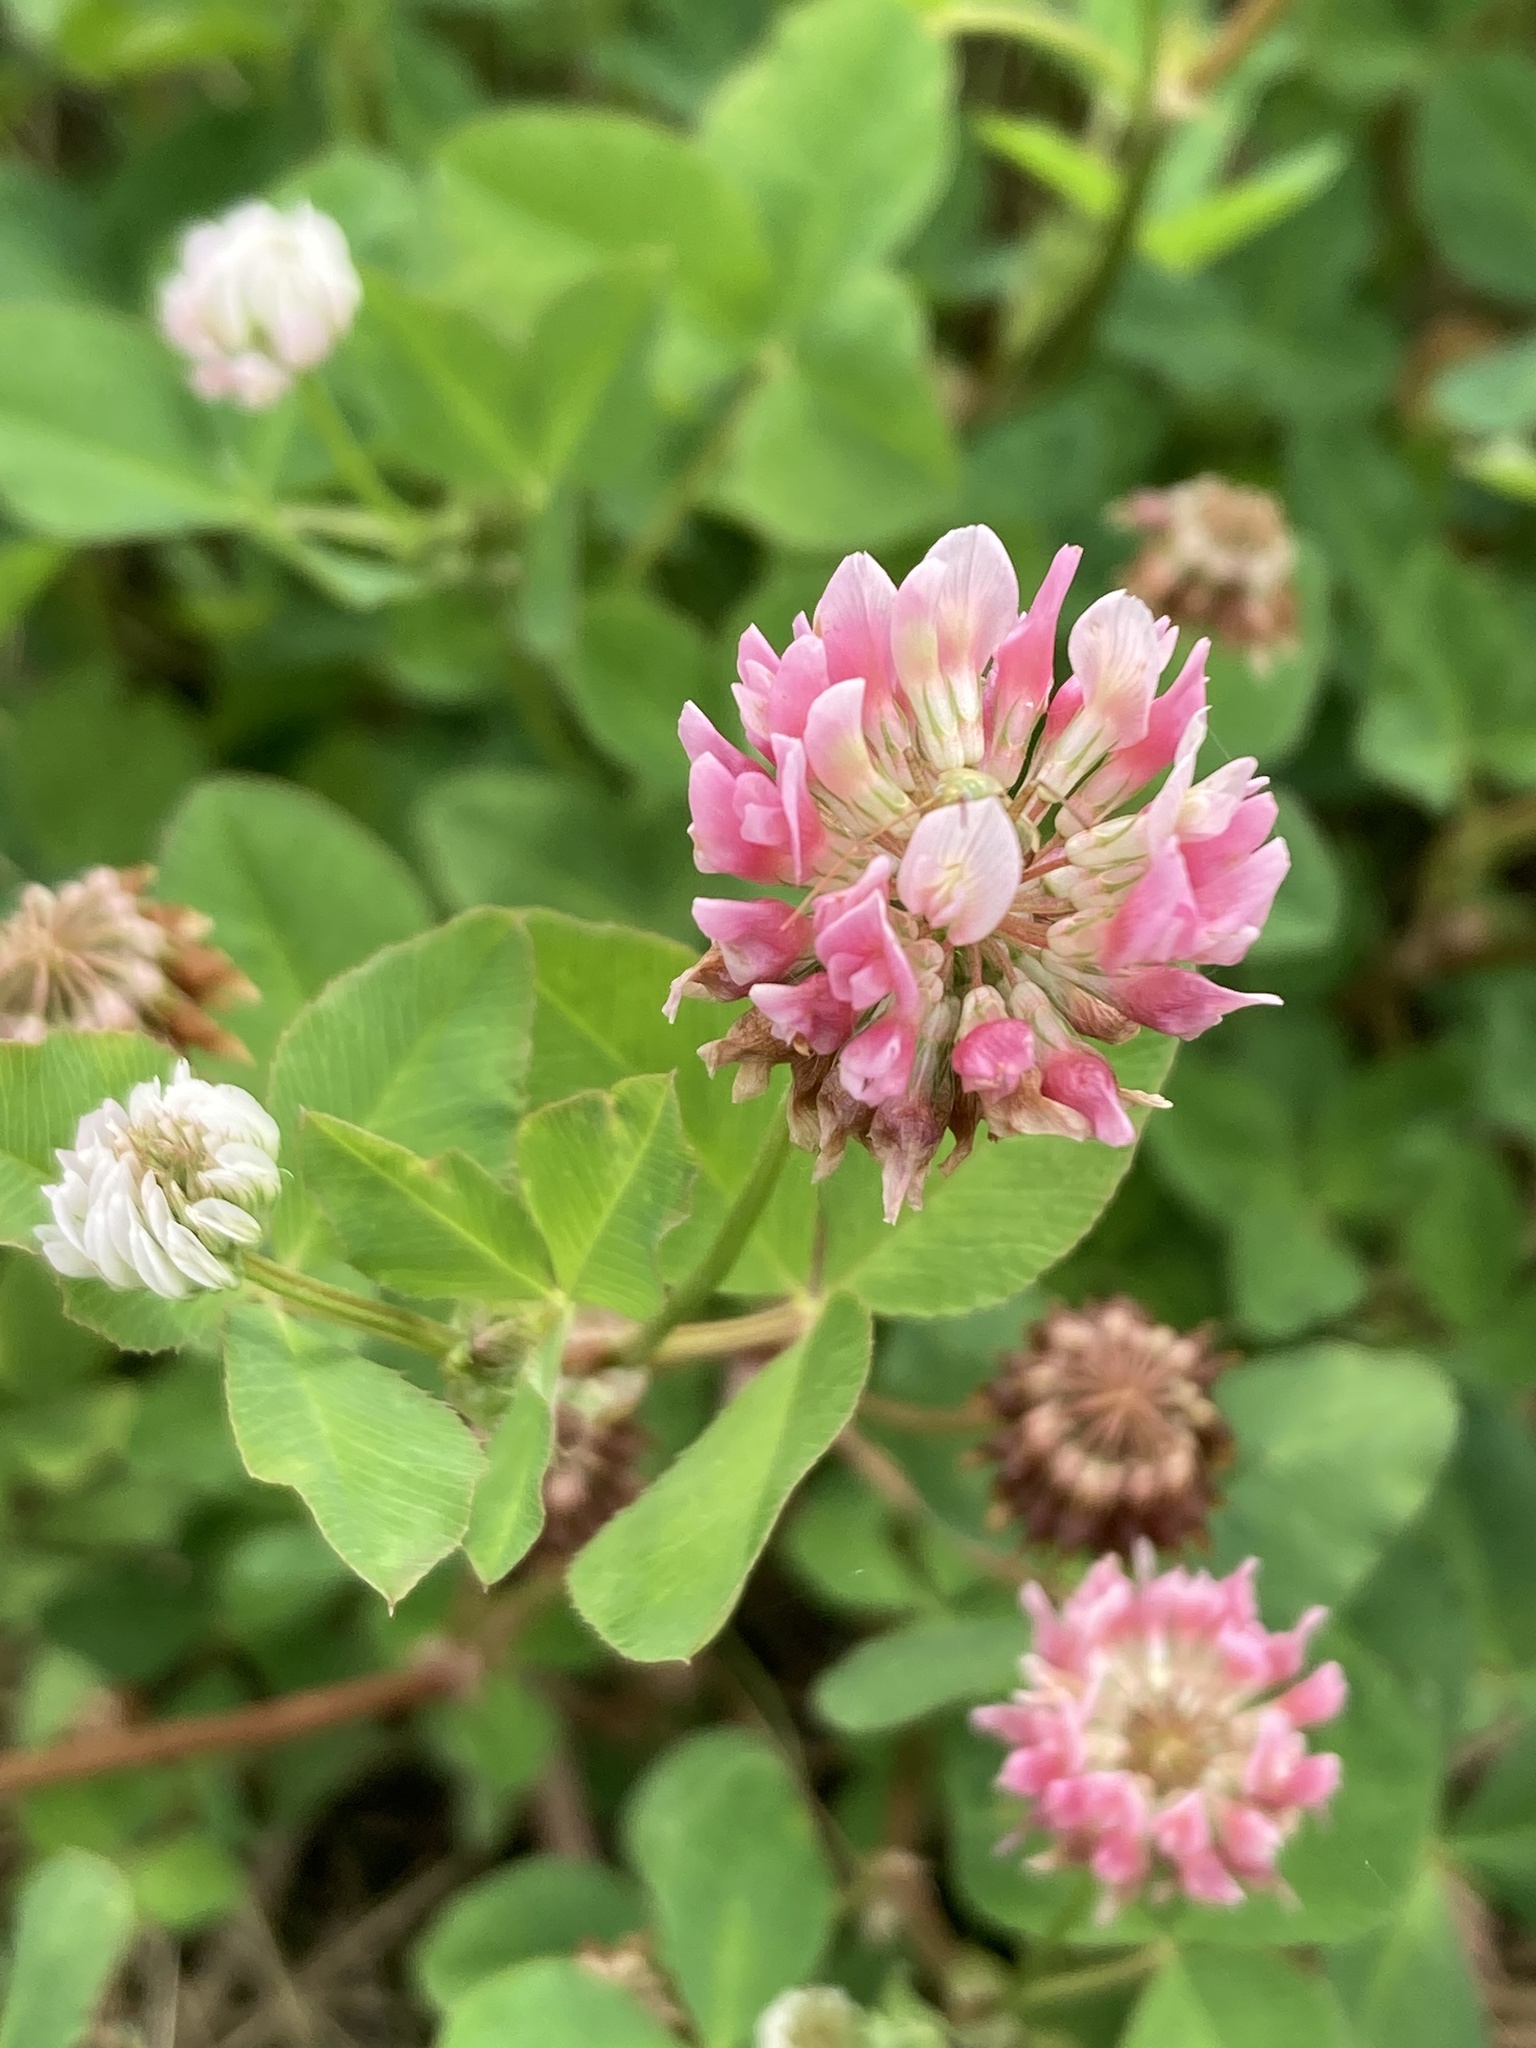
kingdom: Plantae
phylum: Tracheophyta
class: Magnoliopsida
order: Fabales
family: Fabaceae
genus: Trifolium
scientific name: Trifolium hybridum
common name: Alsike clover
